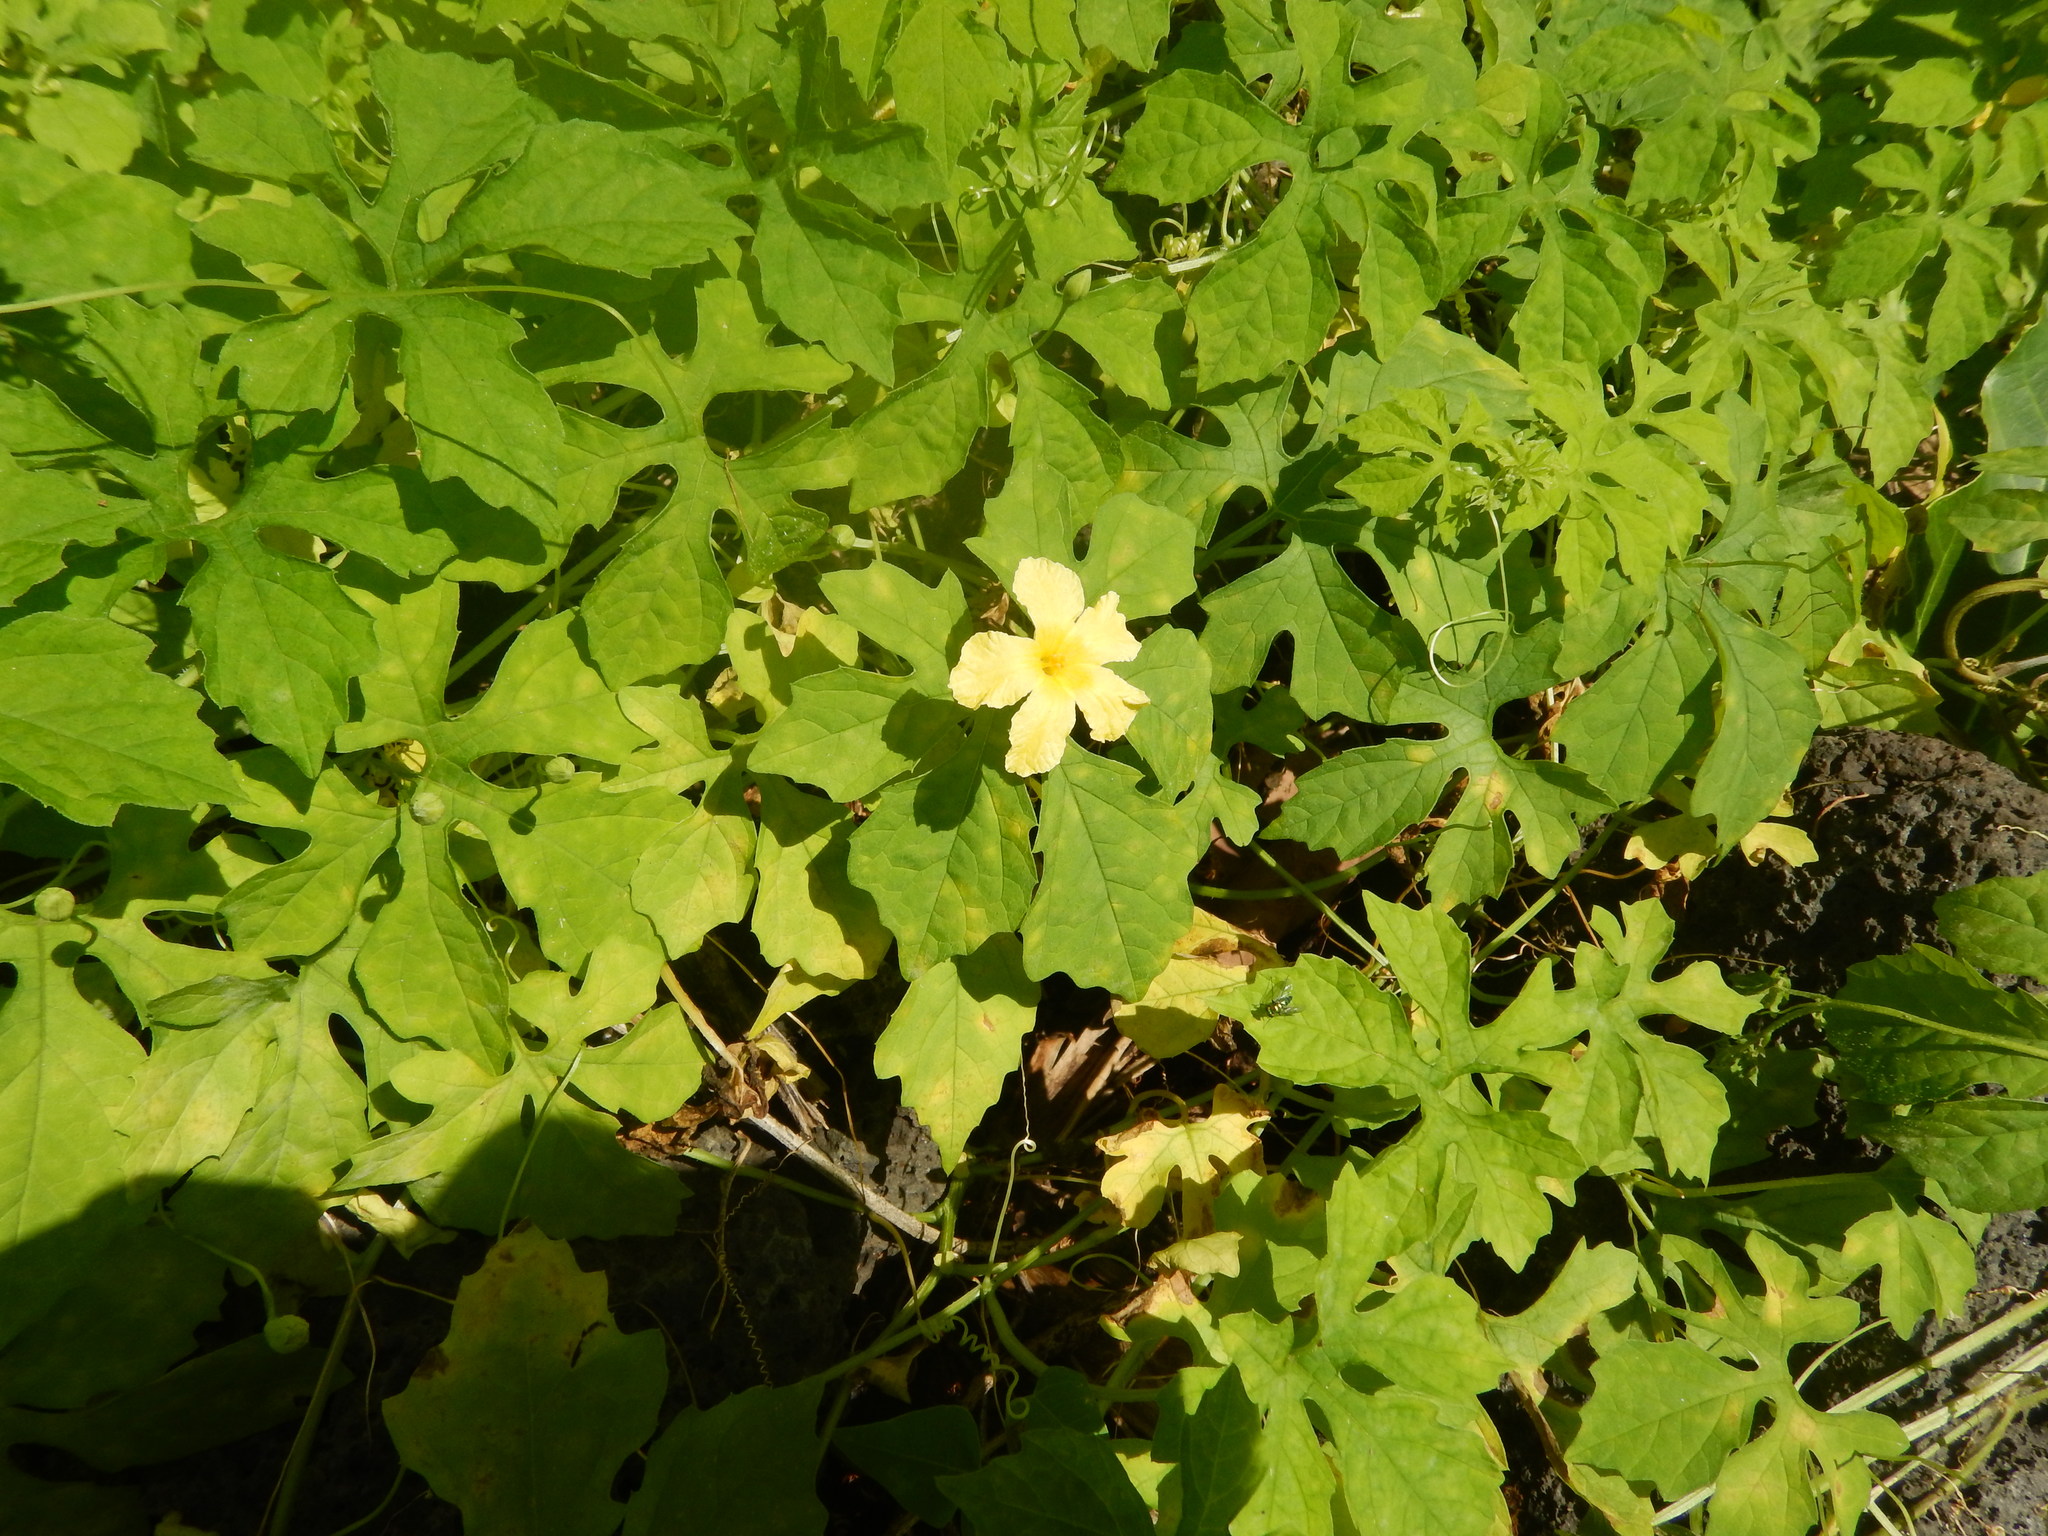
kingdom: Plantae
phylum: Tracheophyta
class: Magnoliopsida
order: Cucurbitales
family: Cucurbitaceae
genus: Momordica
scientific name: Momordica charantia
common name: Balsampear
